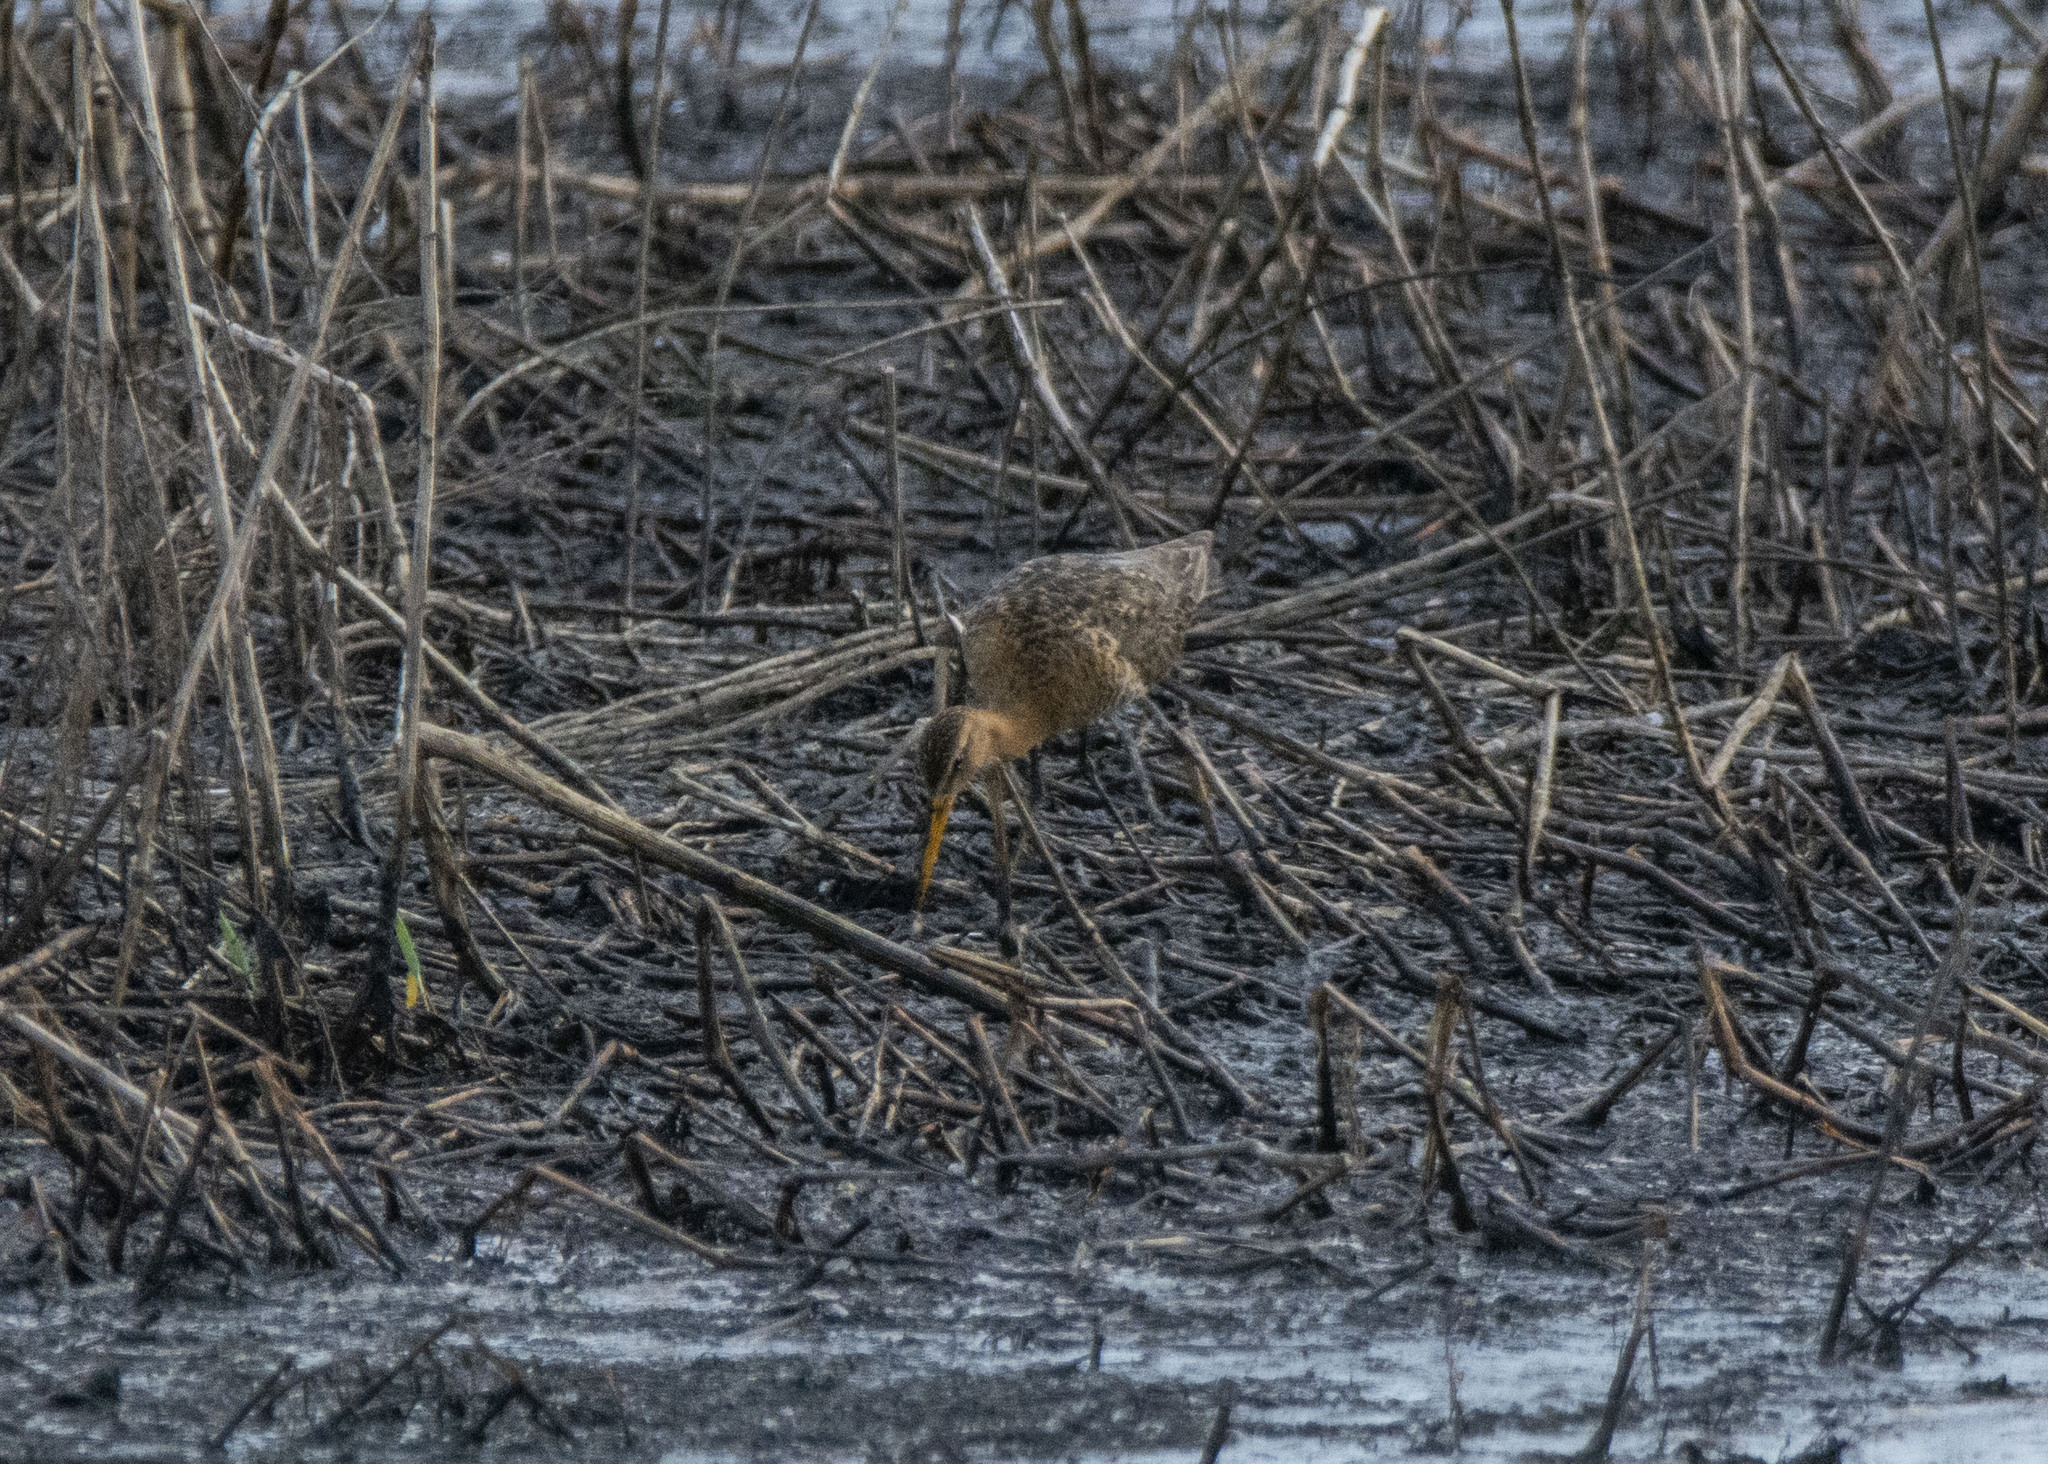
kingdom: Animalia
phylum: Chordata
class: Aves
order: Charadriiformes
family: Scolopacidae
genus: Limosa
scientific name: Limosa limosa
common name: Black-tailed godwit
